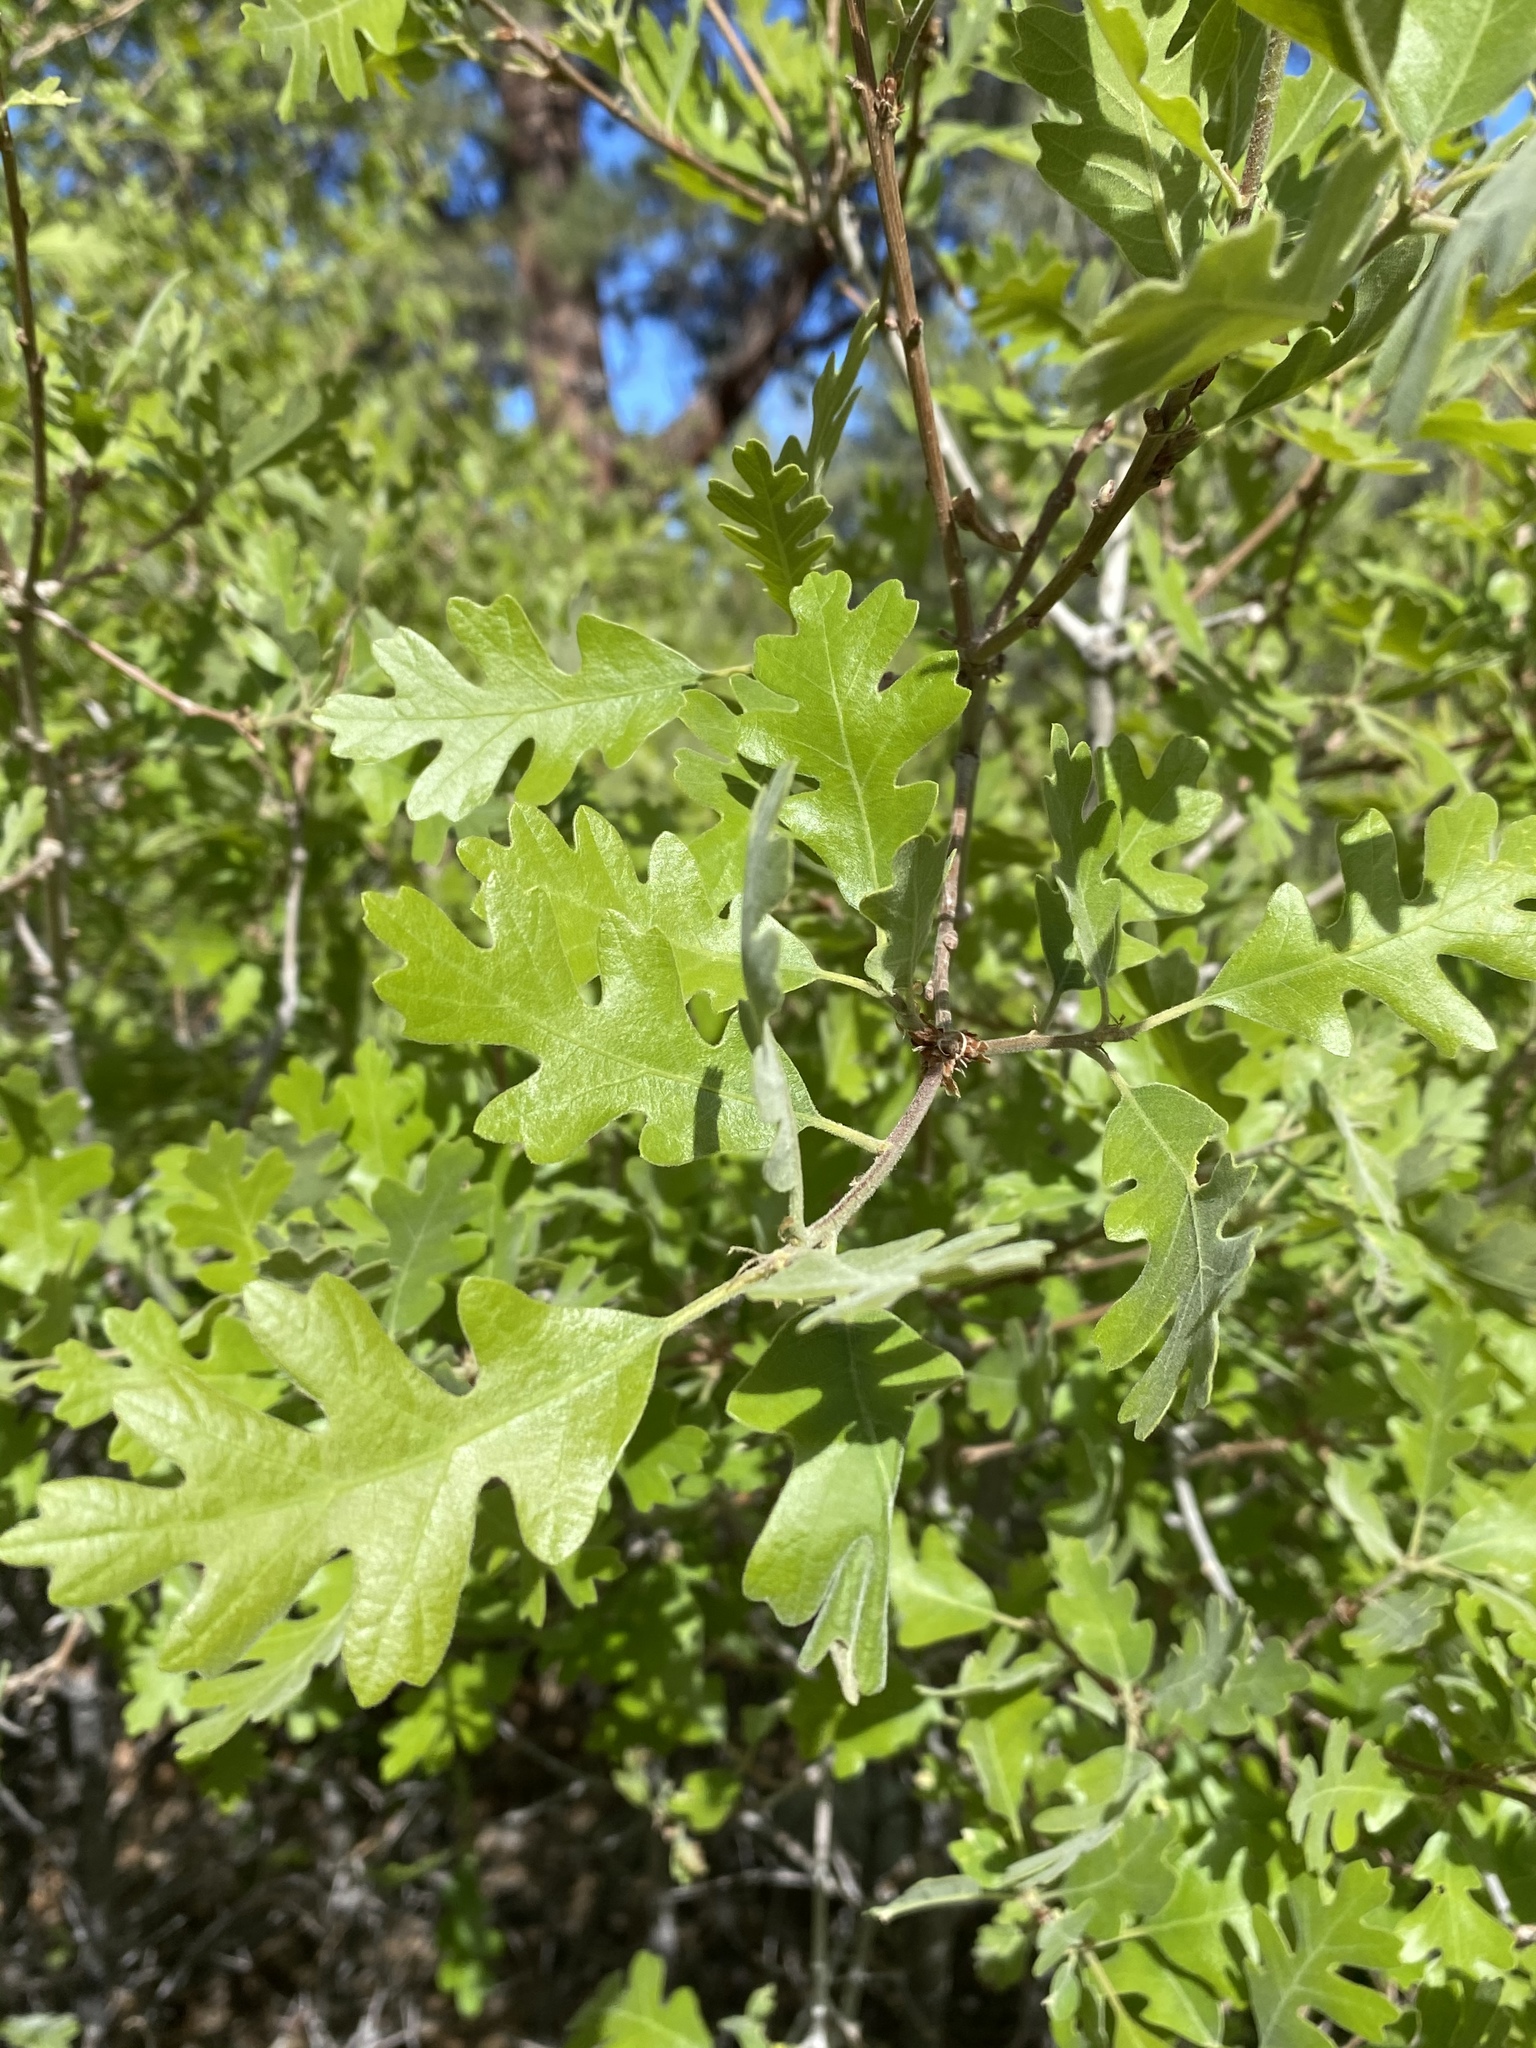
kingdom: Plantae
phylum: Tracheophyta
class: Magnoliopsida
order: Fagales
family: Fagaceae
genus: Quercus
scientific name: Quercus gambelii
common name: Gambel oak
